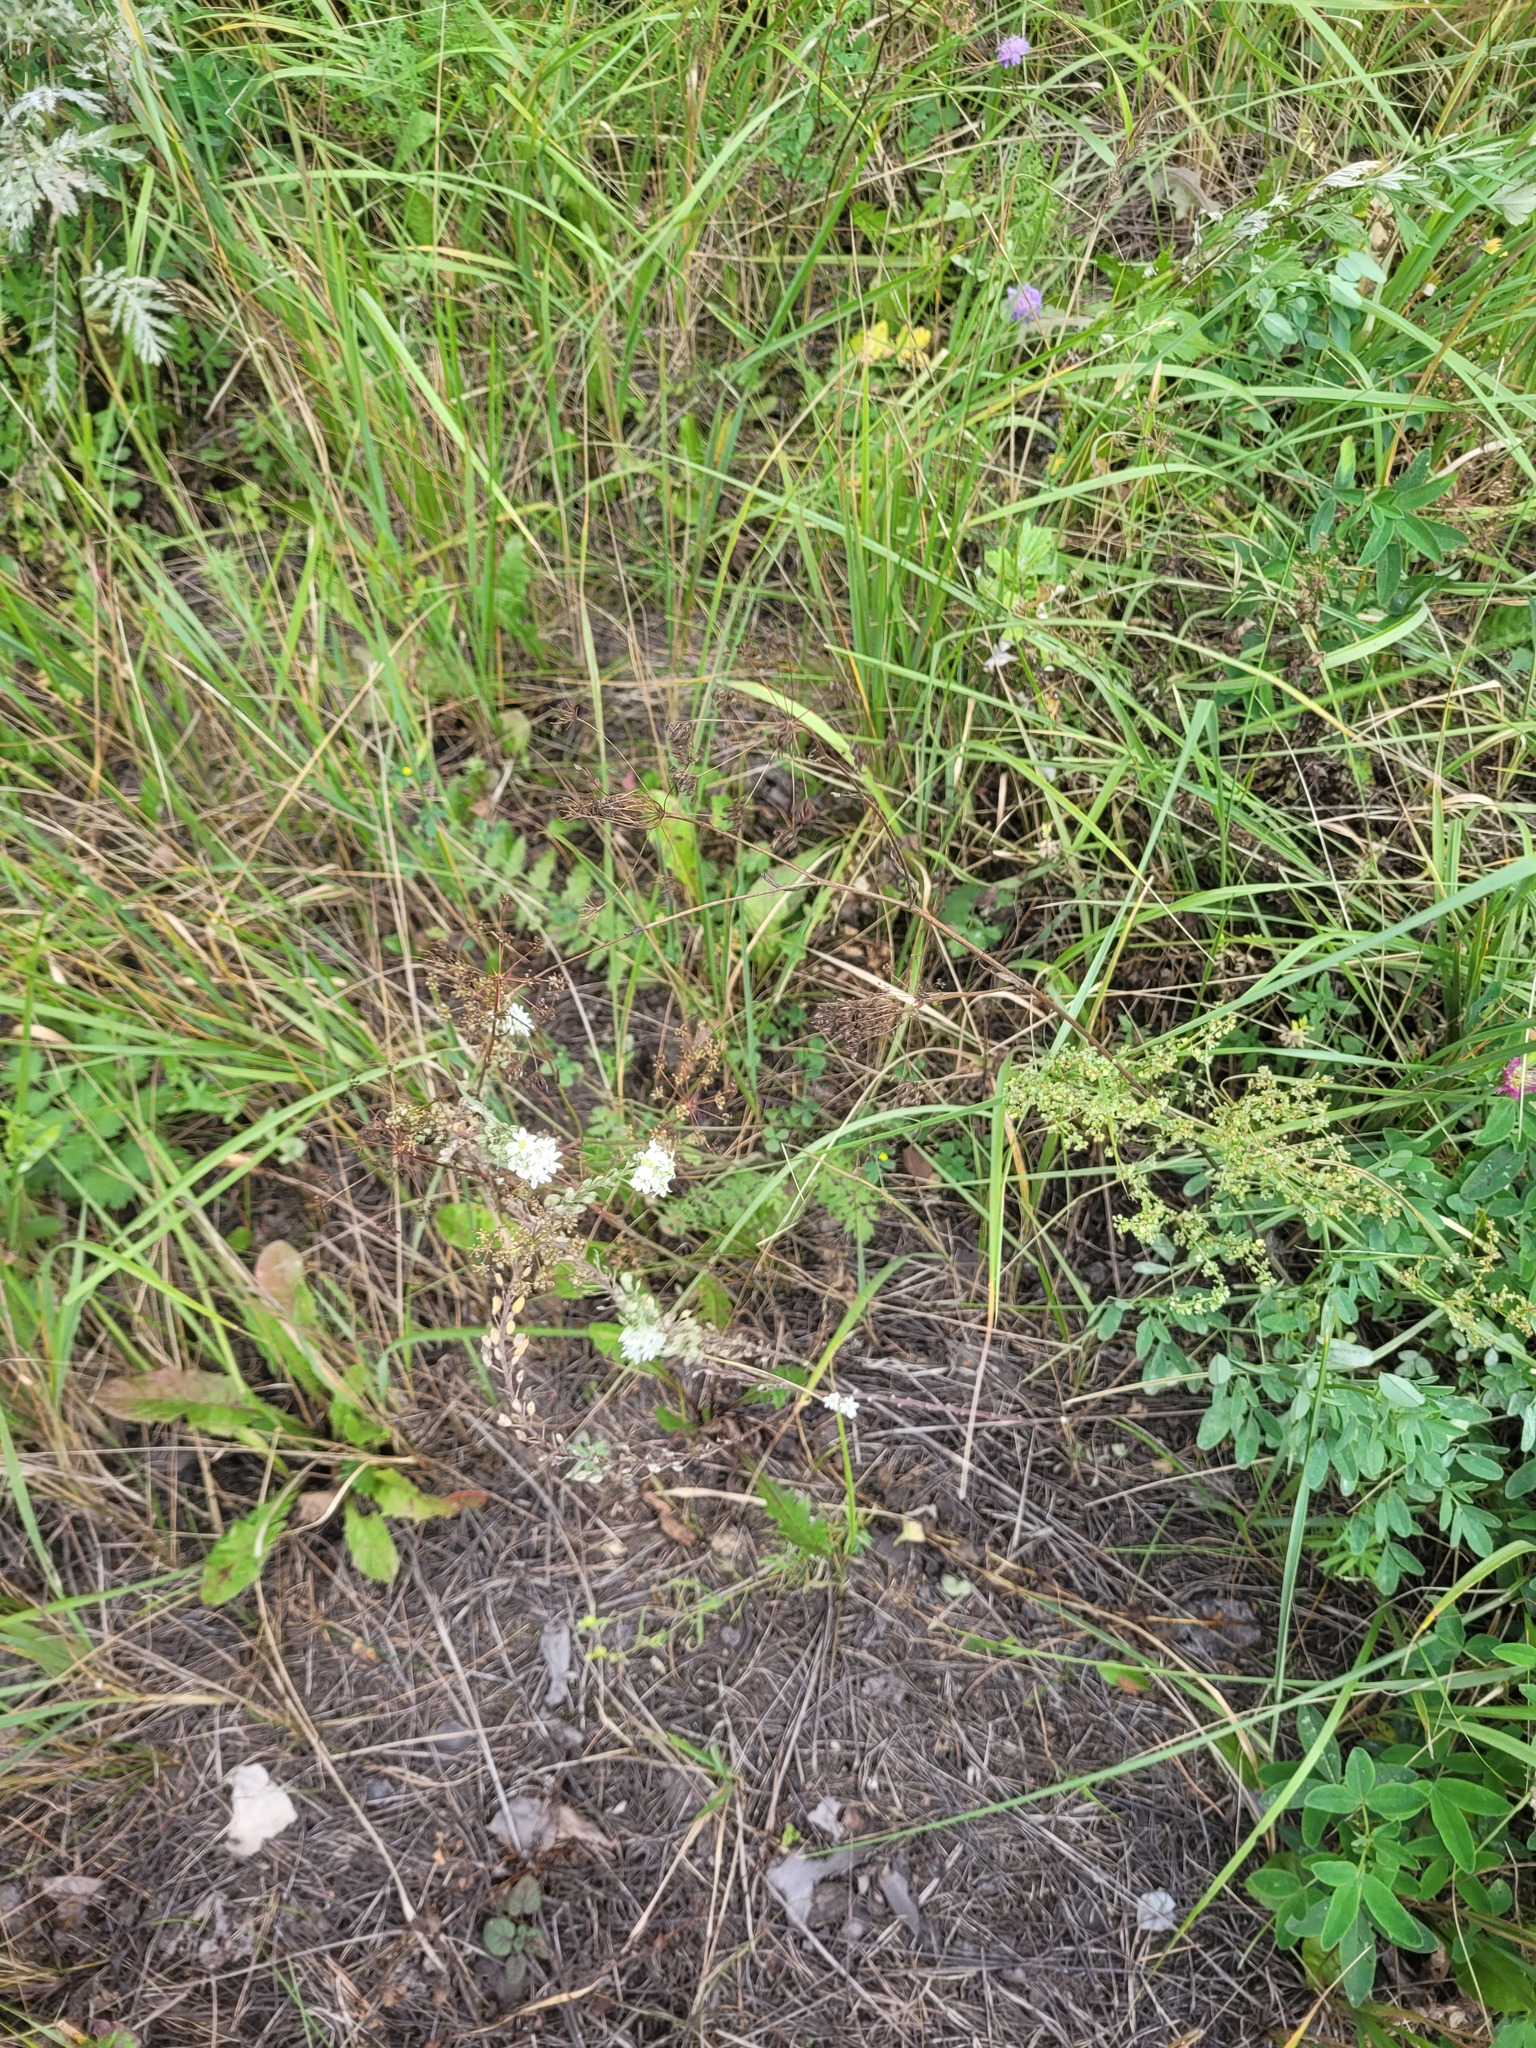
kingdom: Plantae
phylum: Tracheophyta
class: Magnoliopsida
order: Brassicales
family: Brassicaceae
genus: Berteroa
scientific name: Berteroa incana
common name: Hoary alison
